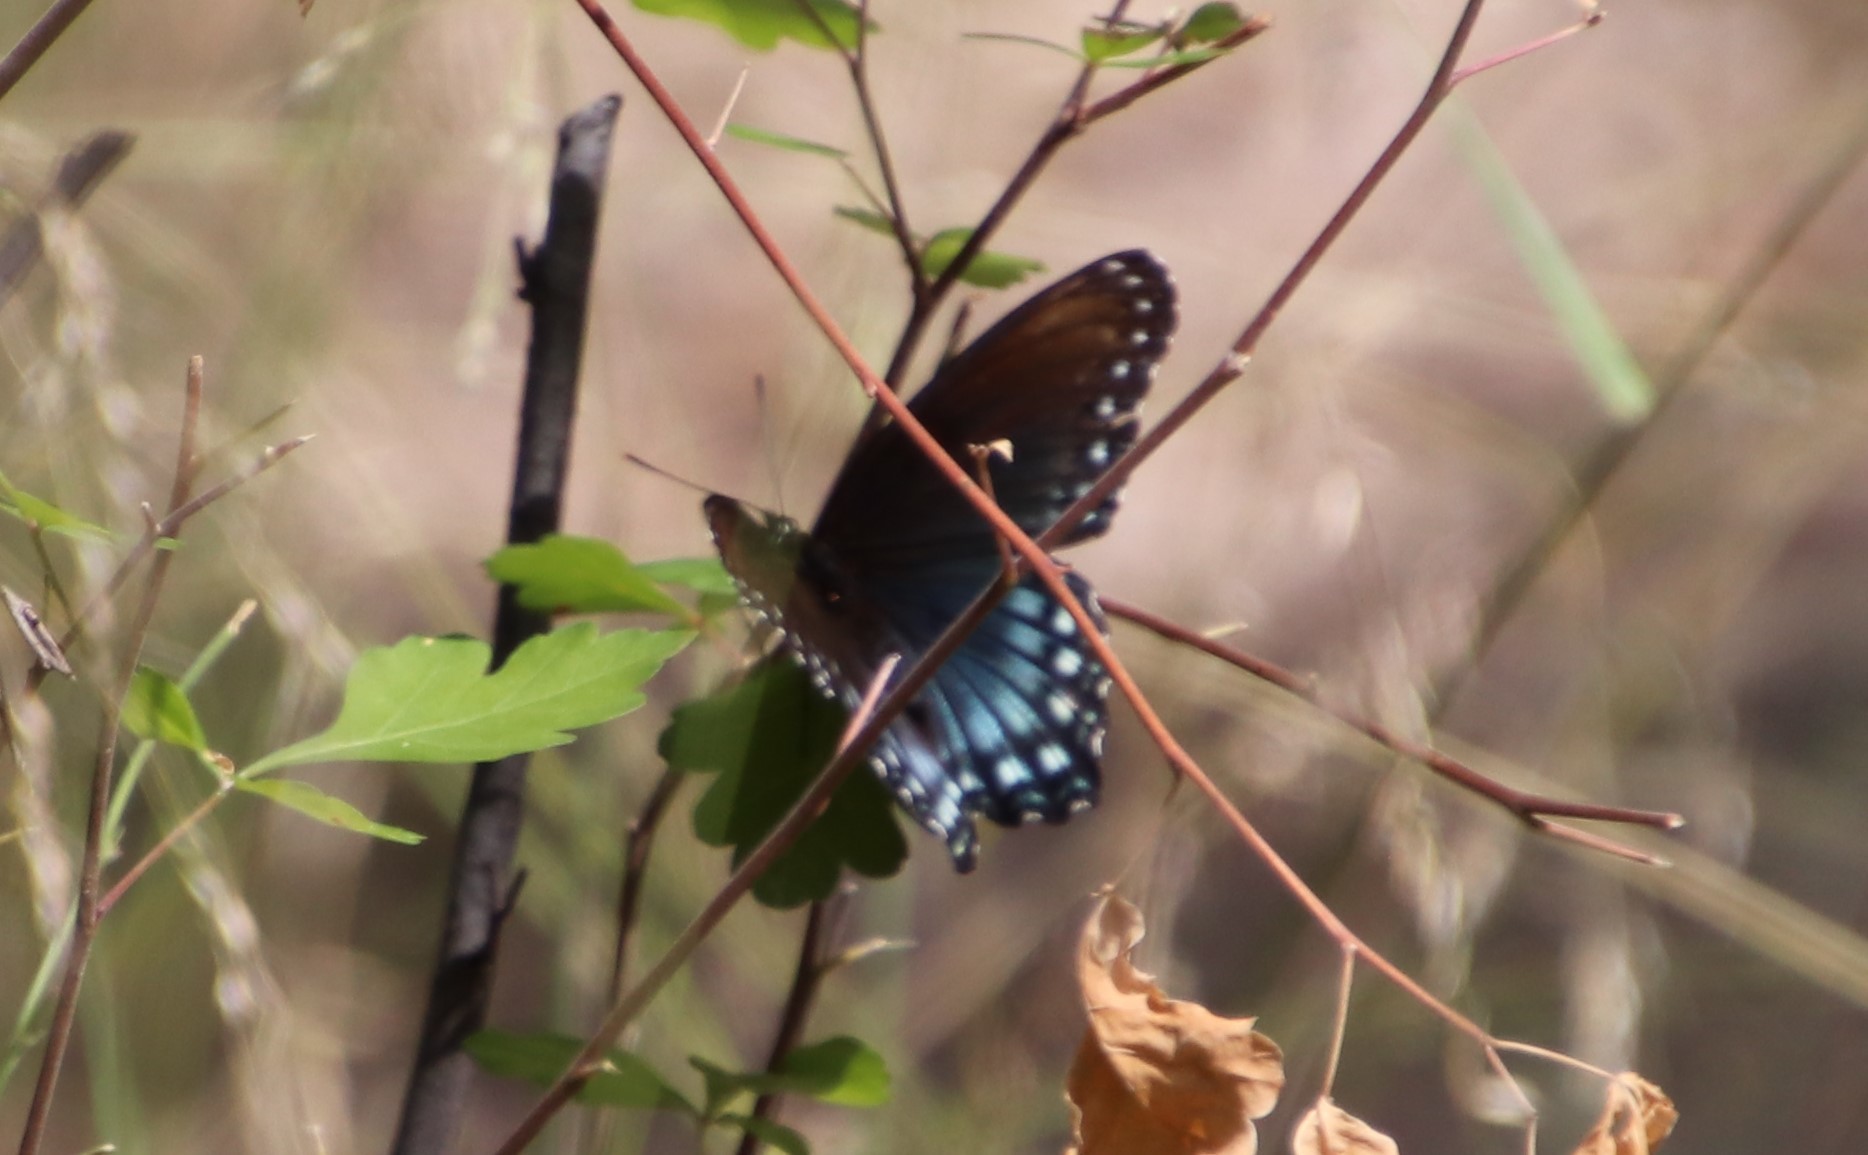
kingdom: Animalia
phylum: Arthropoda
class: Insecta
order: Lepidoptera
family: Nymphalidae
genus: Limenitis
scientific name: Limenitis arthemis
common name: Red-spotted admiral
